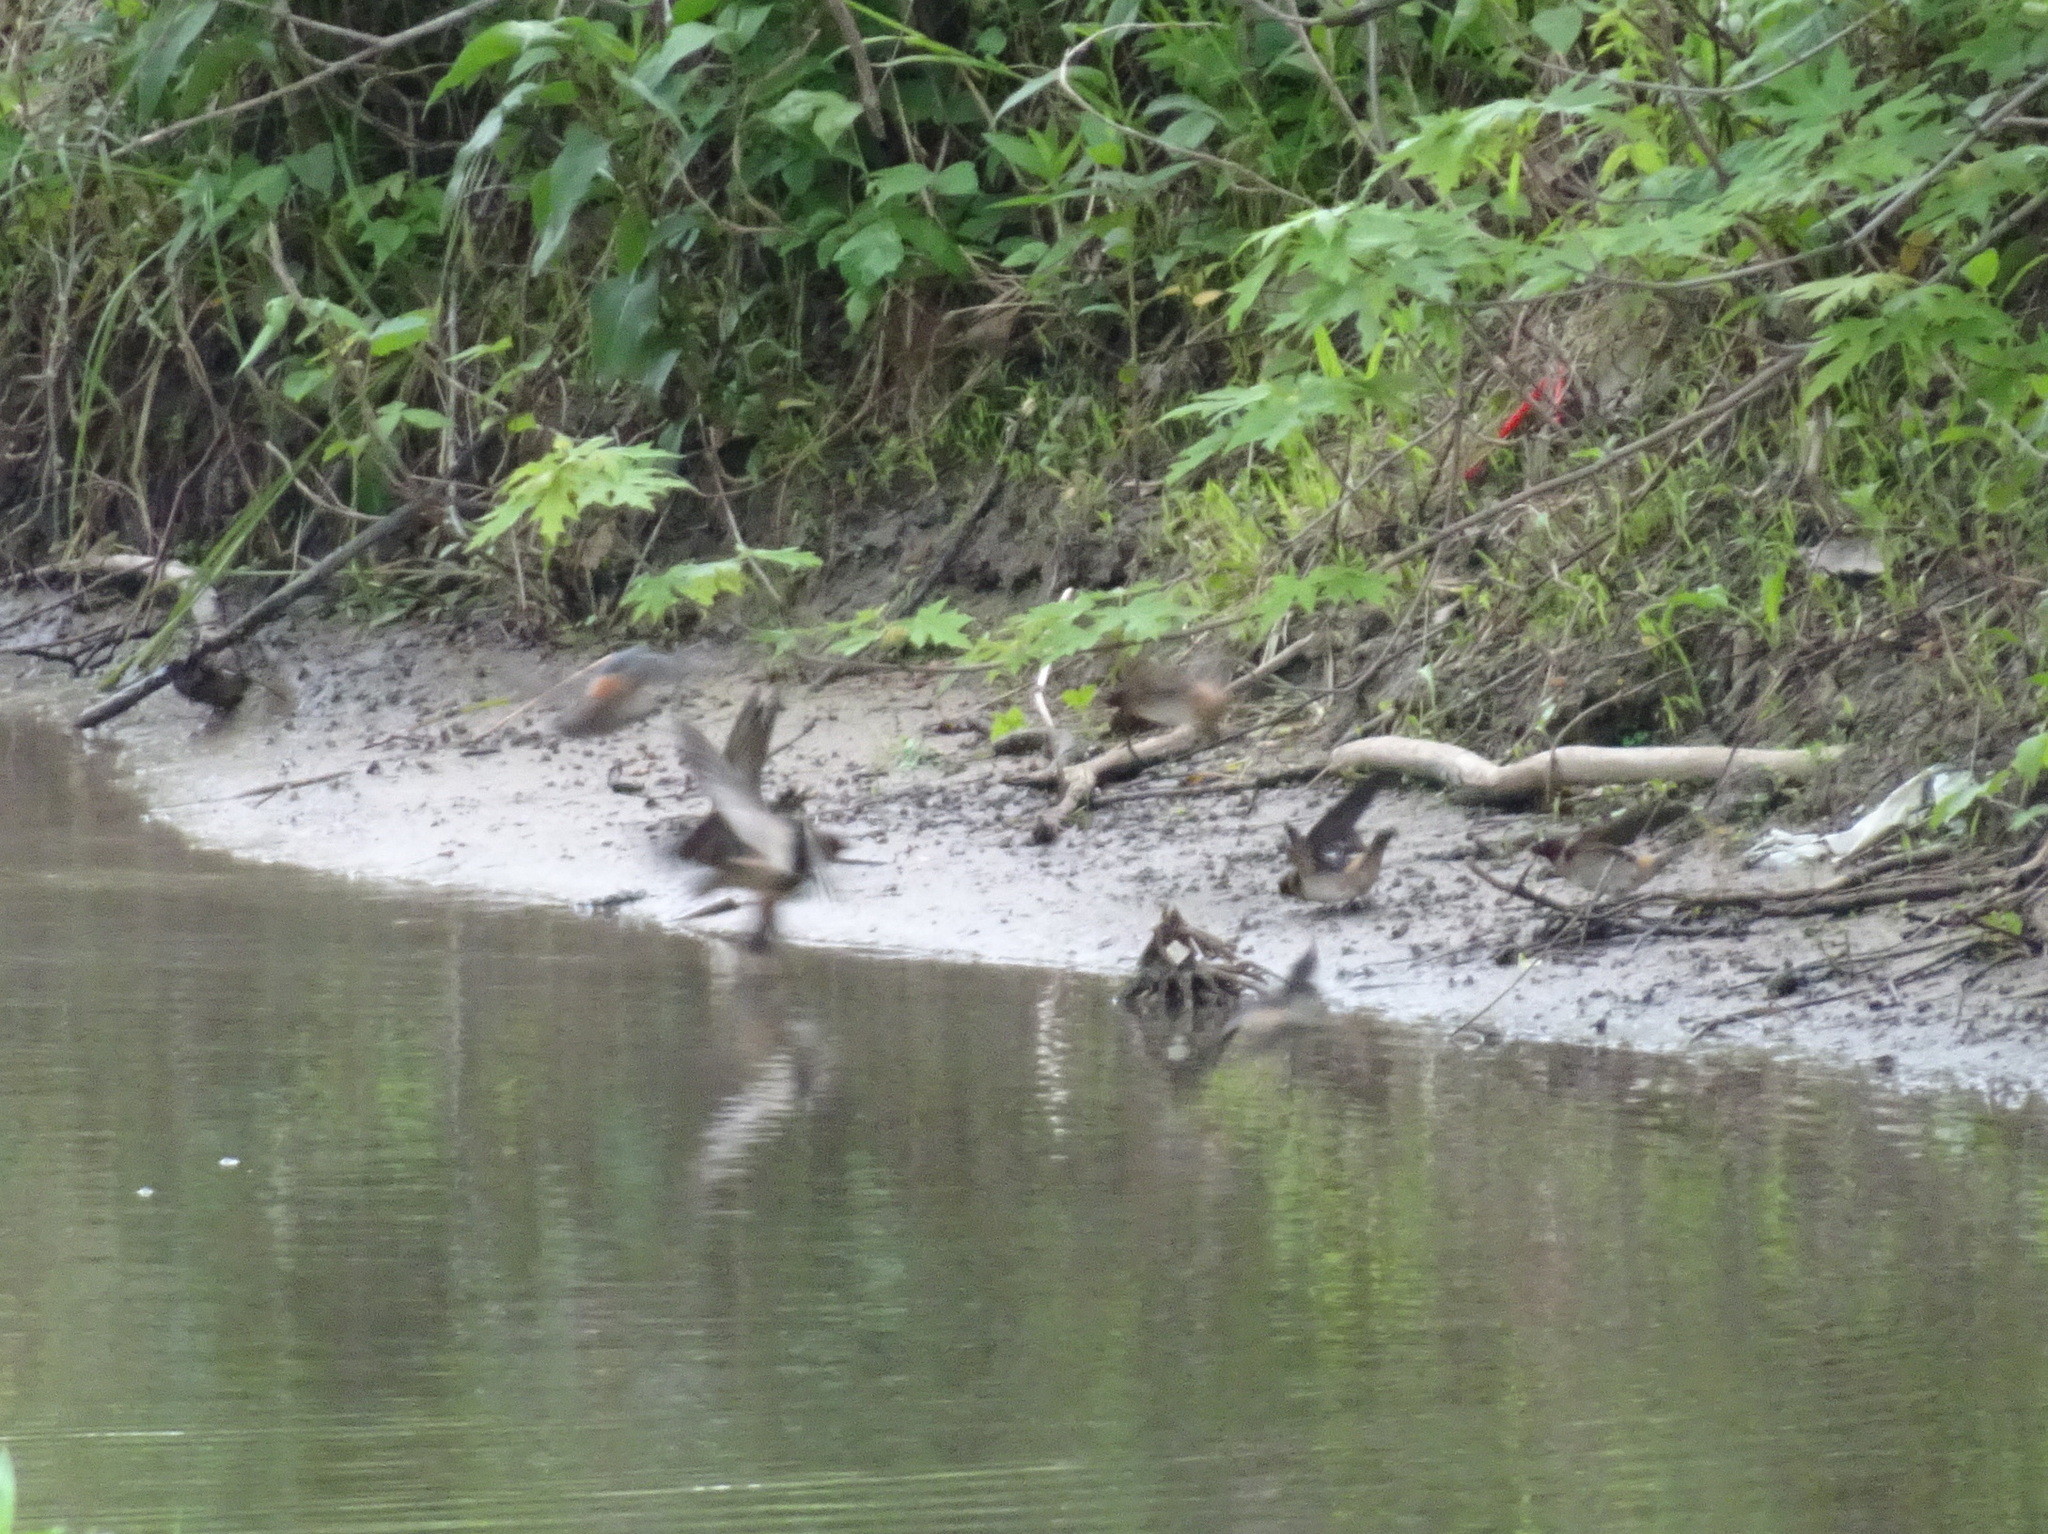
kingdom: Animalia
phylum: Chordata
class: Aves
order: Passeriformes
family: Hirundinidae
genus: Petrochelidon
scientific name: Petrochelidon pyrrhonota
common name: American cliff swallow
